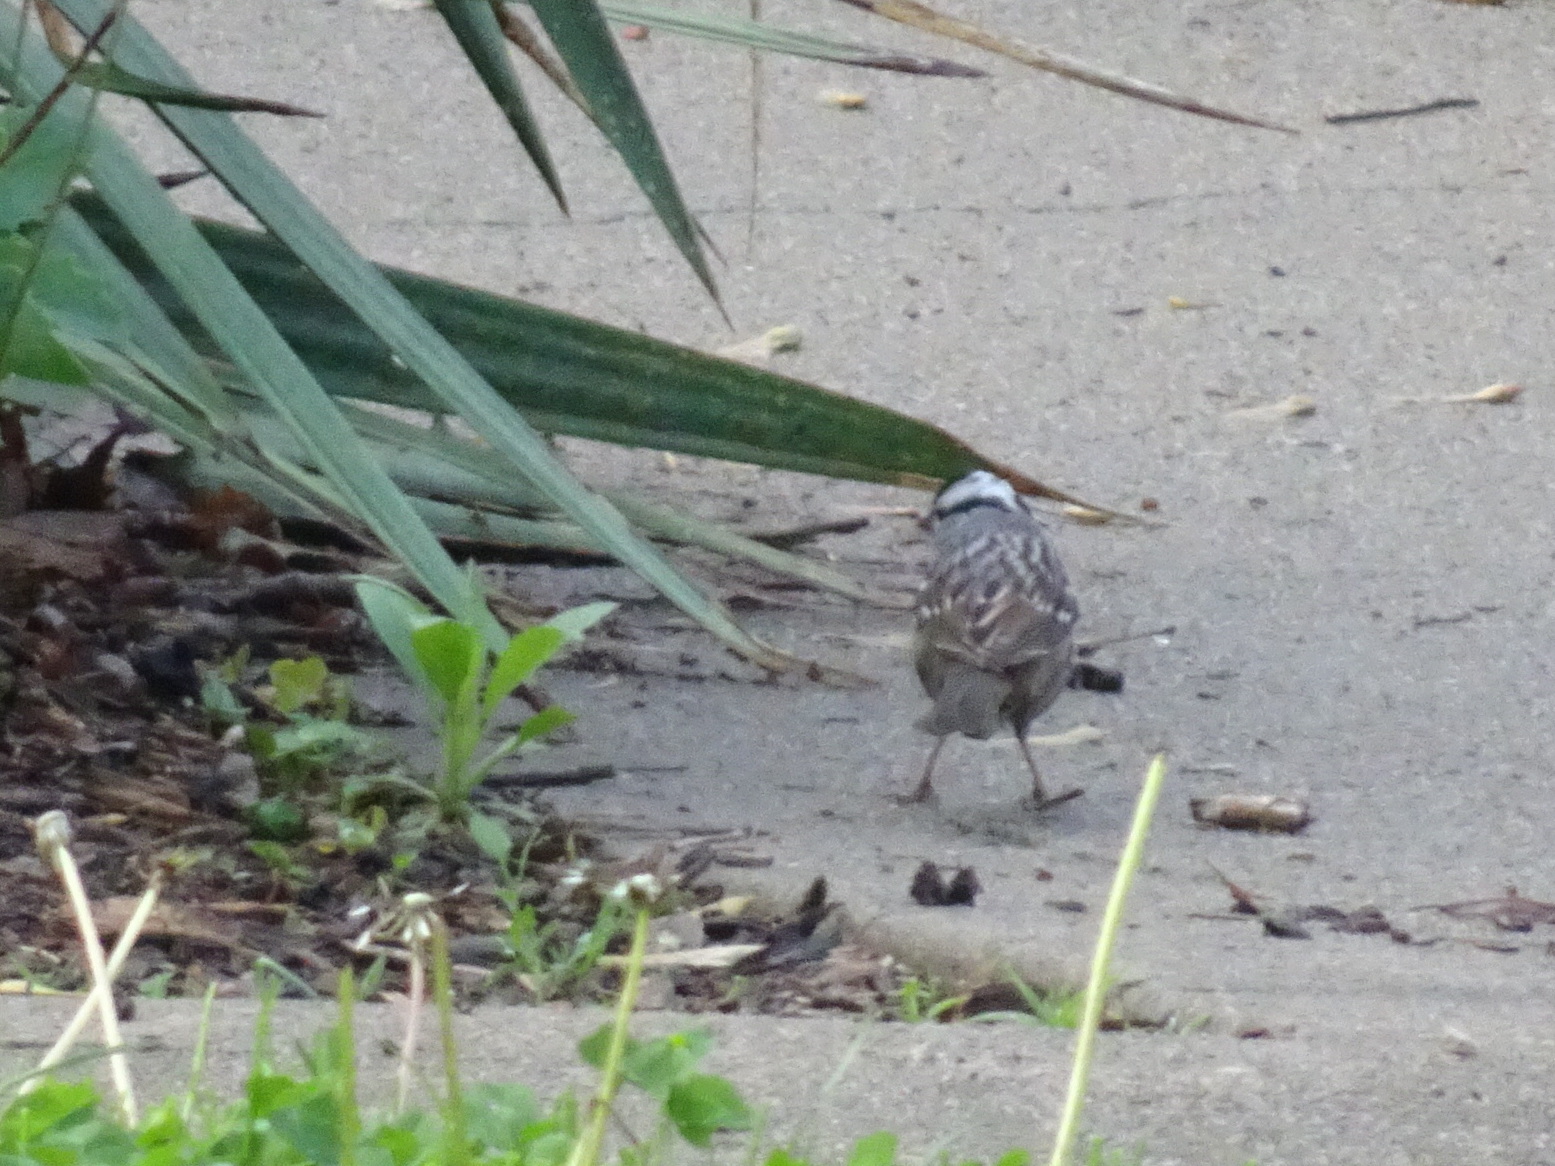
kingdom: Animalia
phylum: Chordata
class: Aves
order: Passeriformes
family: Passerellidae
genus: Zonotrichia
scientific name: Zonotrichia leucophrys
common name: White-crowned sparrow
